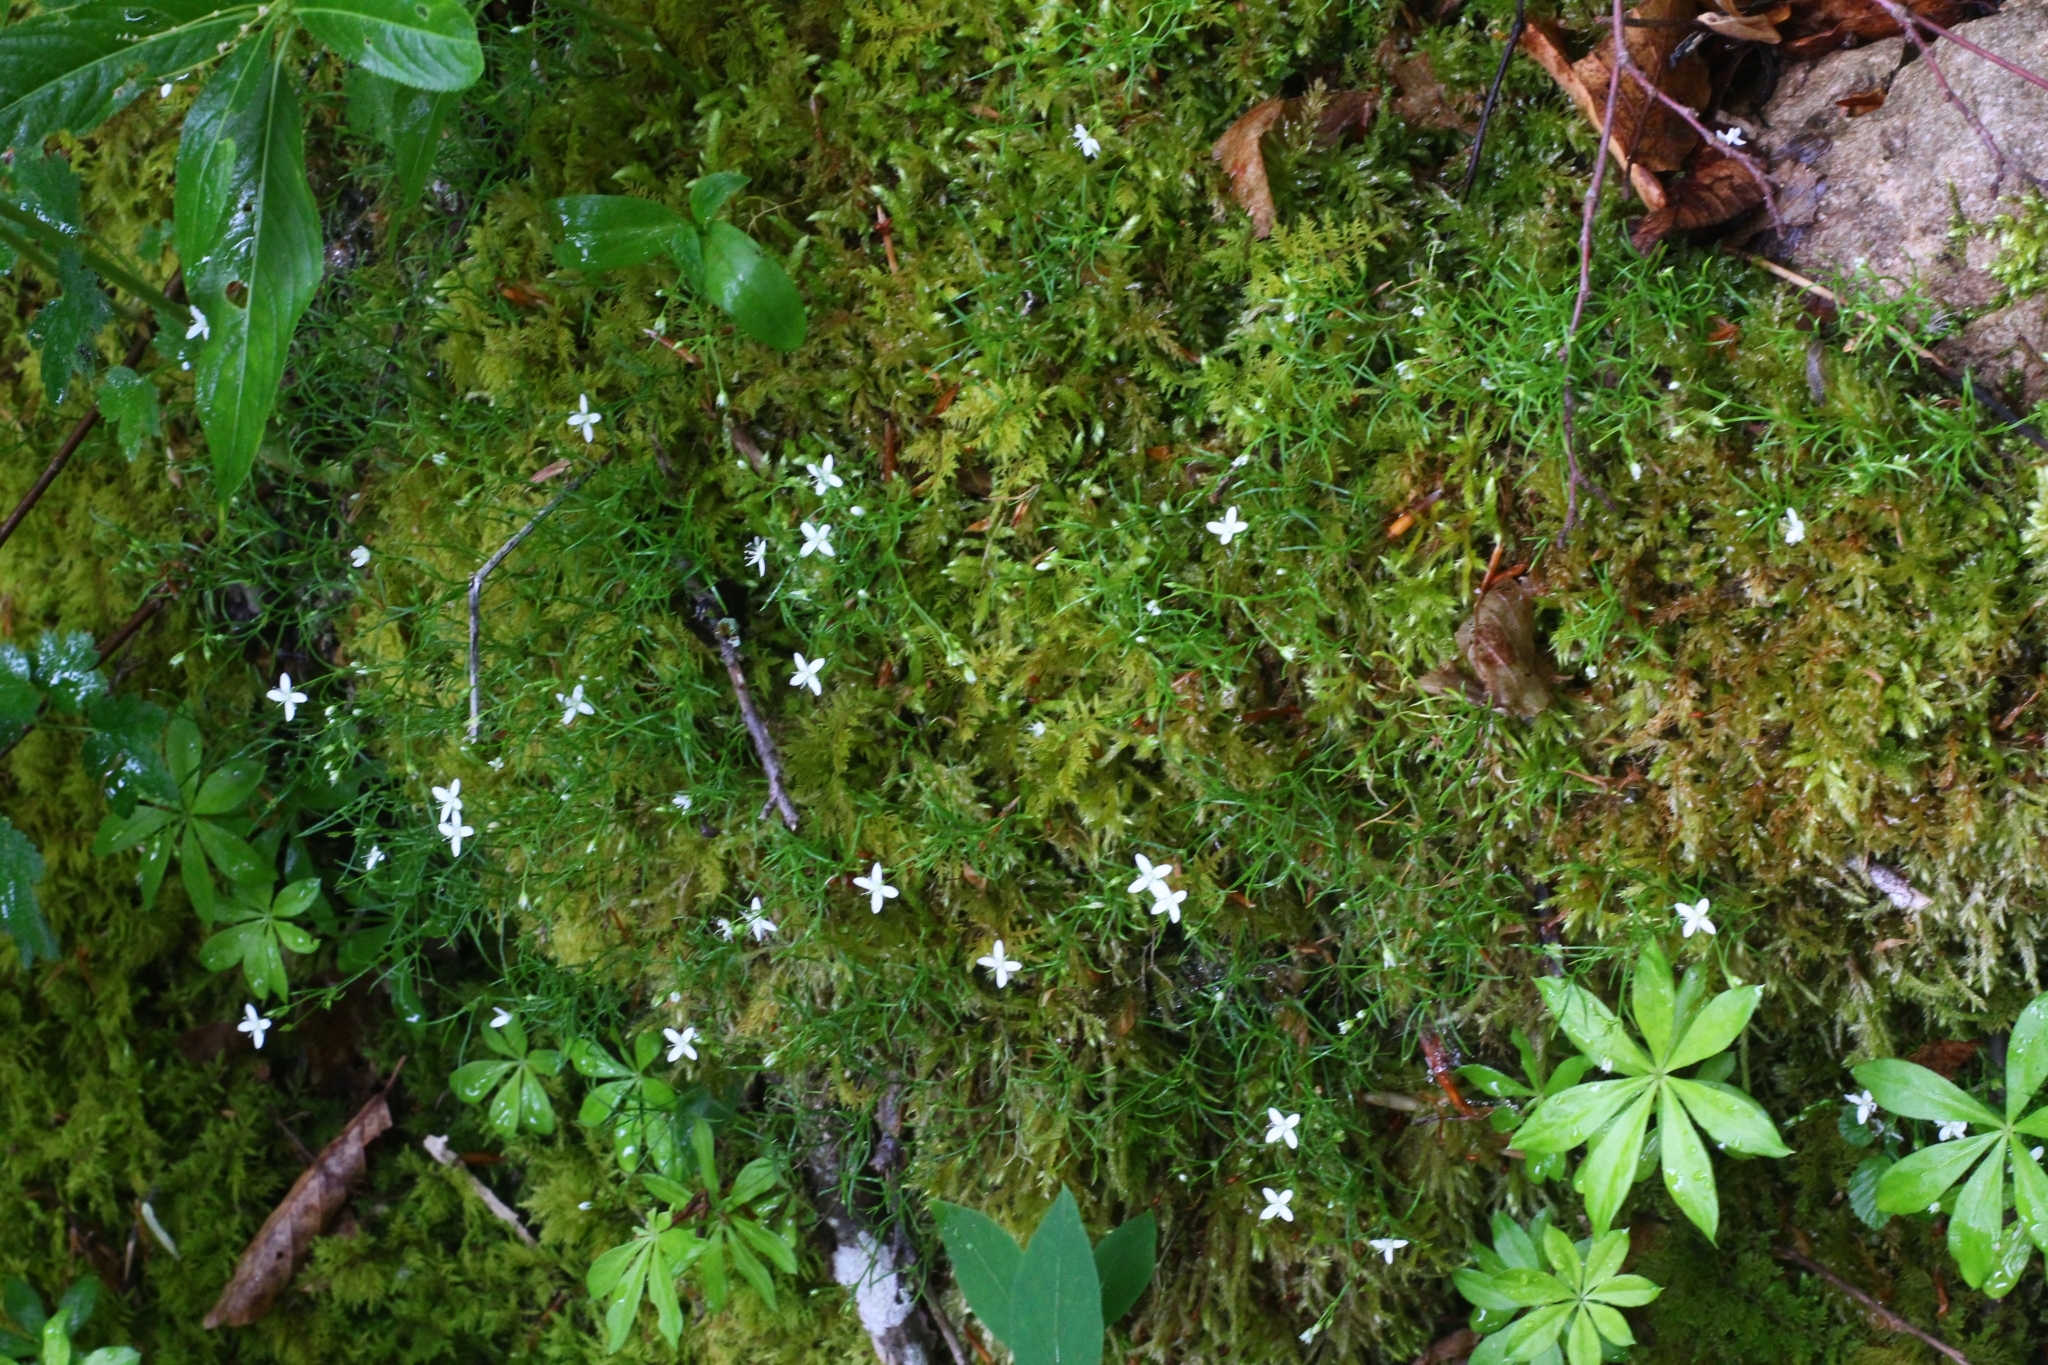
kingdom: Plantae
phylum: Tracheophyta
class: Magnoliopsida
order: Caryophyllales
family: Caryophyllaceae
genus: Moehringia
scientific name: Moehringia muscosa
